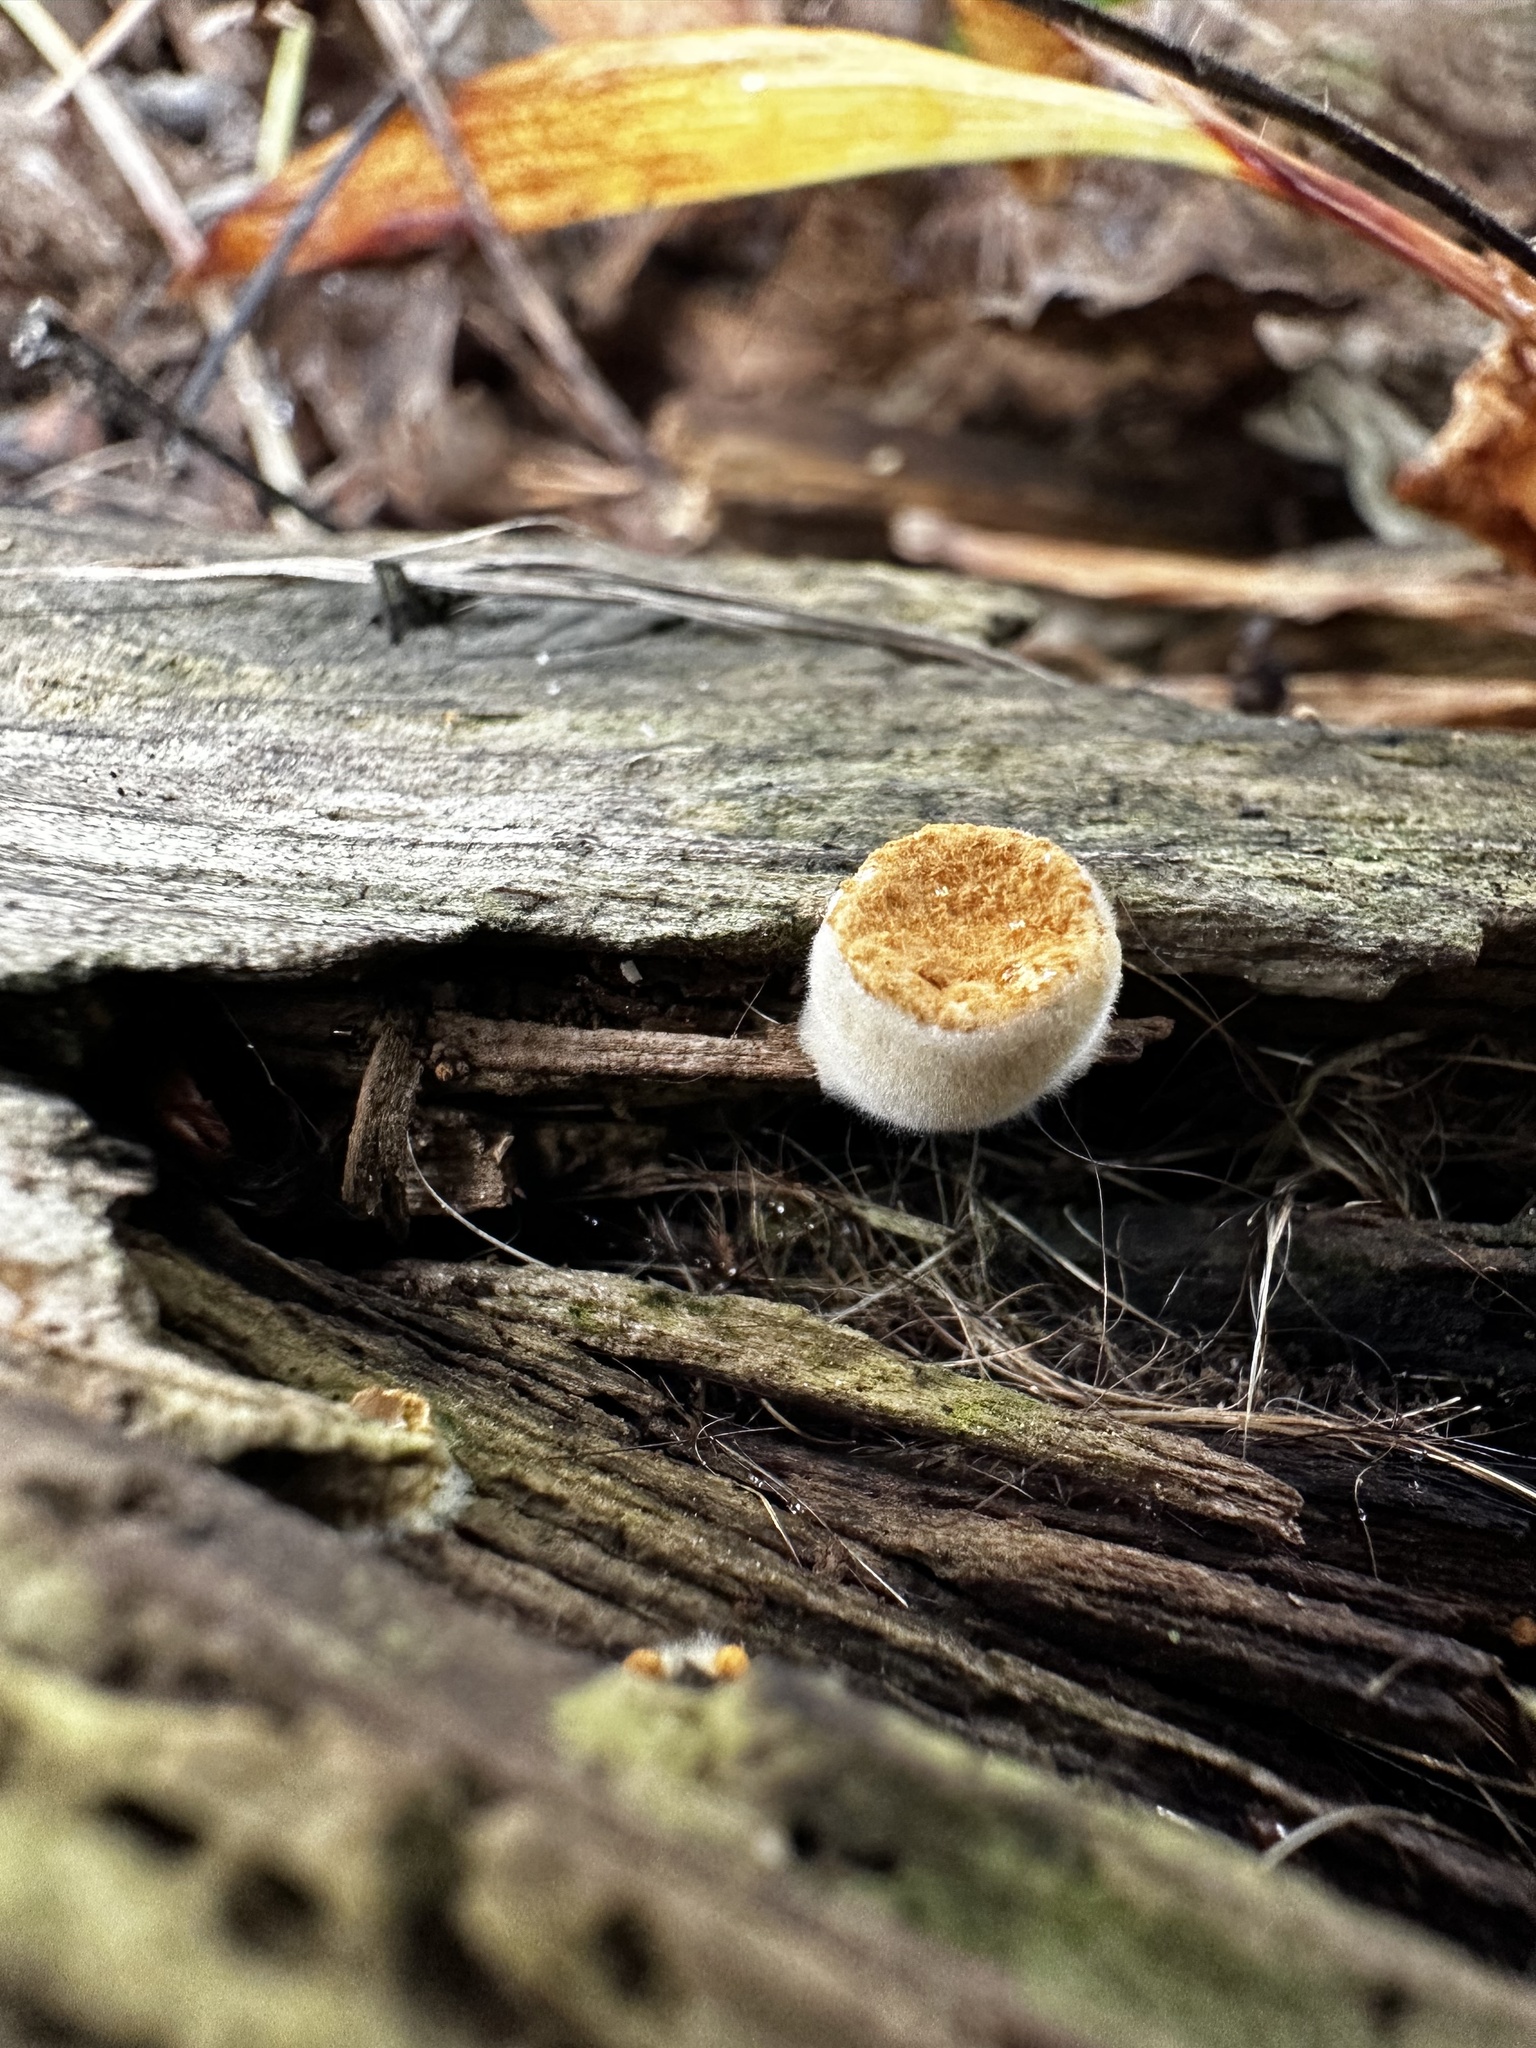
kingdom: Fungi
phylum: Basidiomycota
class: Agaricomycetes
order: Agaricales
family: Nidulariaceae
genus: Crucibulum
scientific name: Crucibulum laeve
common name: Common bird's nest
